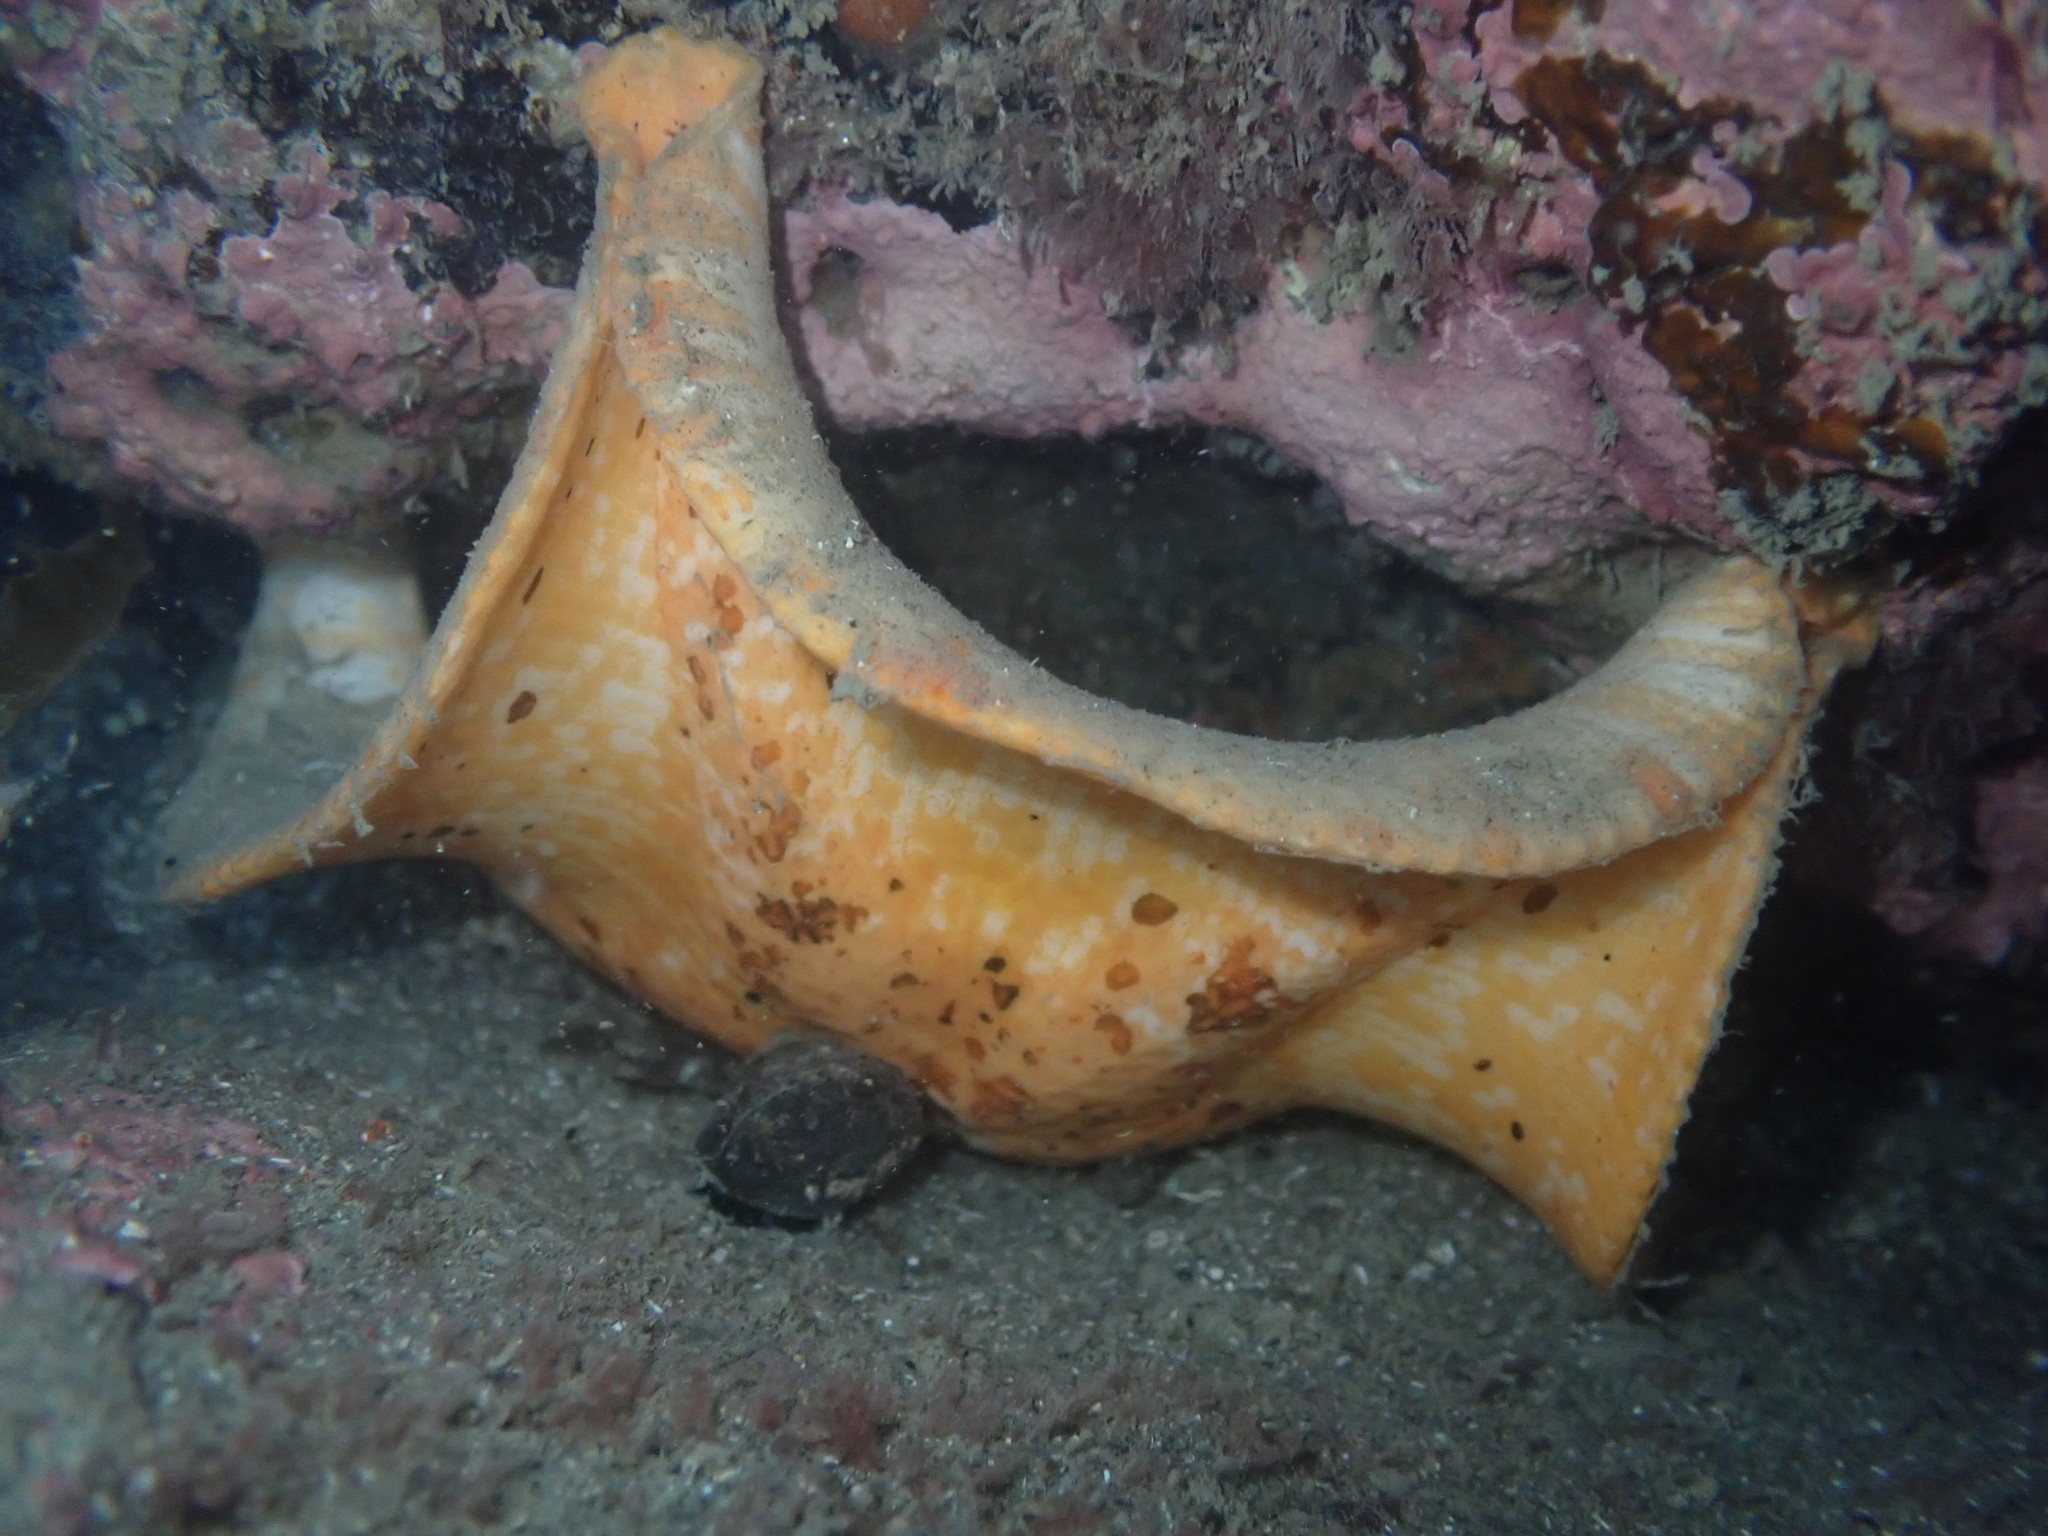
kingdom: Animalia
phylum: Echinodermata
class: Asteroidea
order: Valvatida
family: Asterinidae
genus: Stegnaster
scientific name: Stegnaster inflatus
